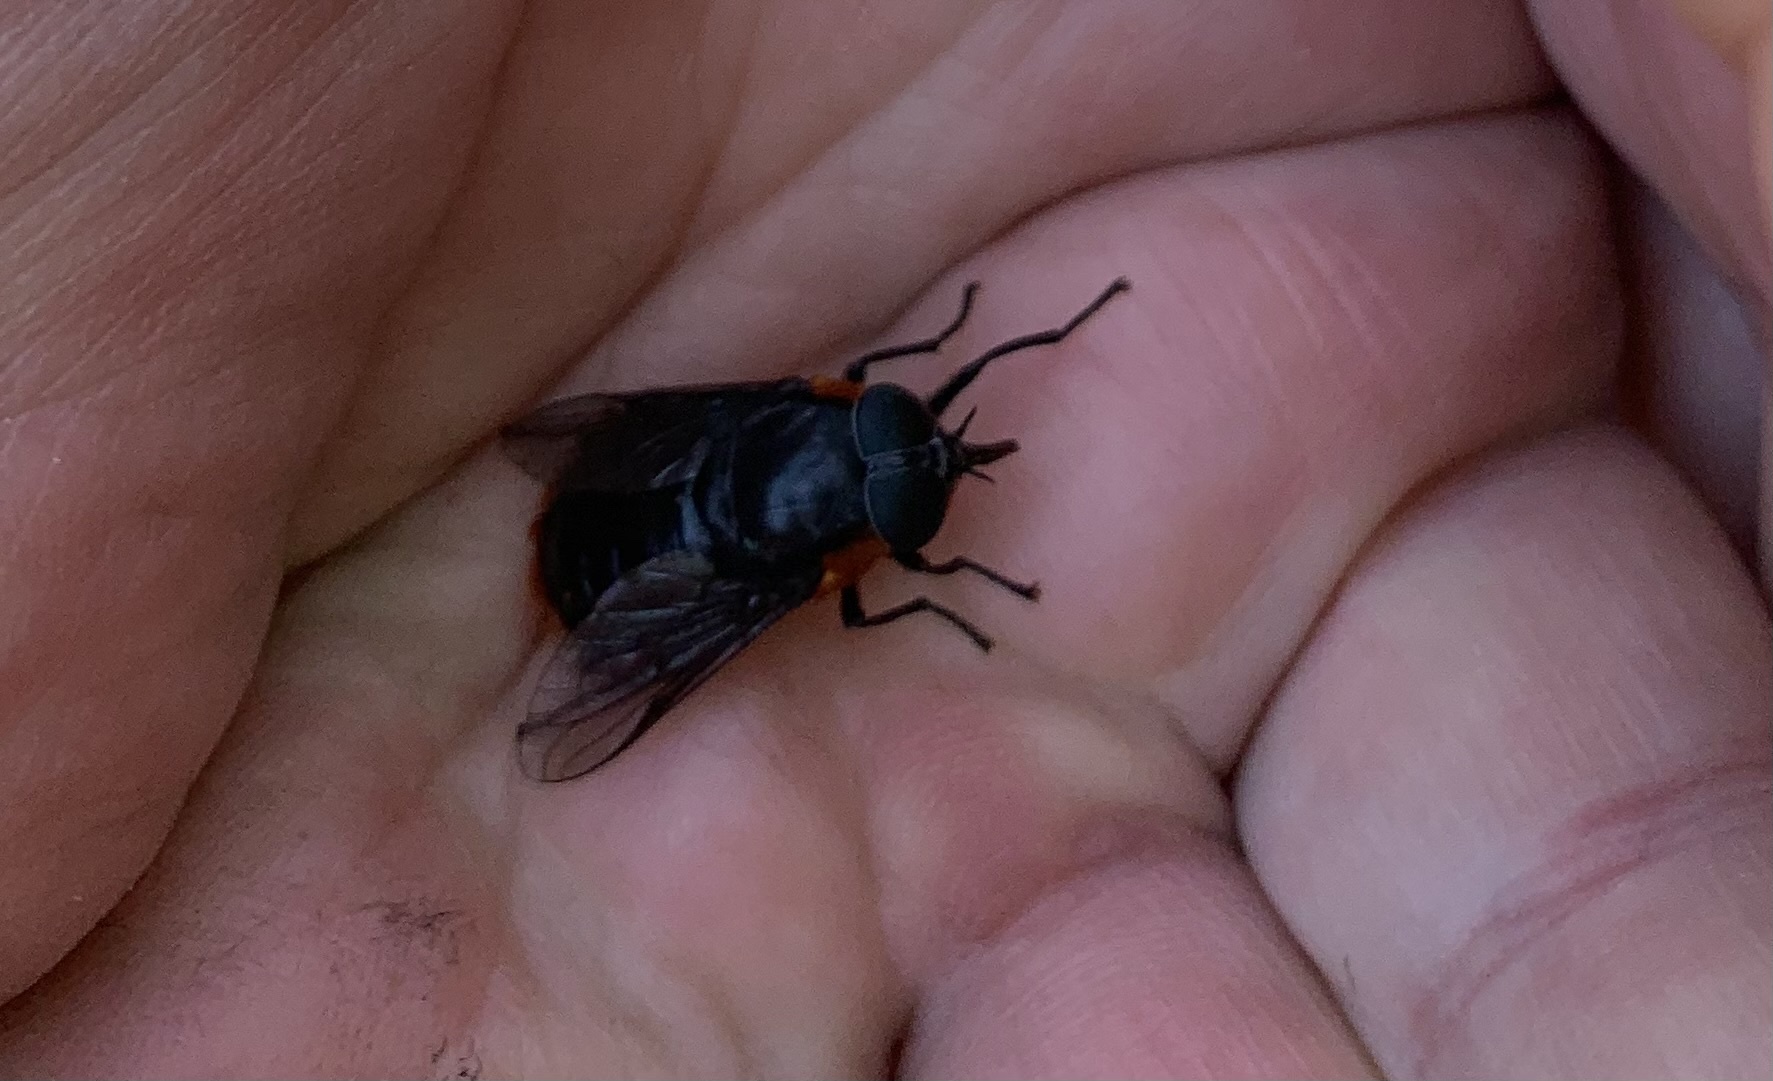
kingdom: Animalia
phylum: Arthropoda
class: Insecta
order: Diptera
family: Tabanidae
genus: Osca
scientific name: Osca lata
